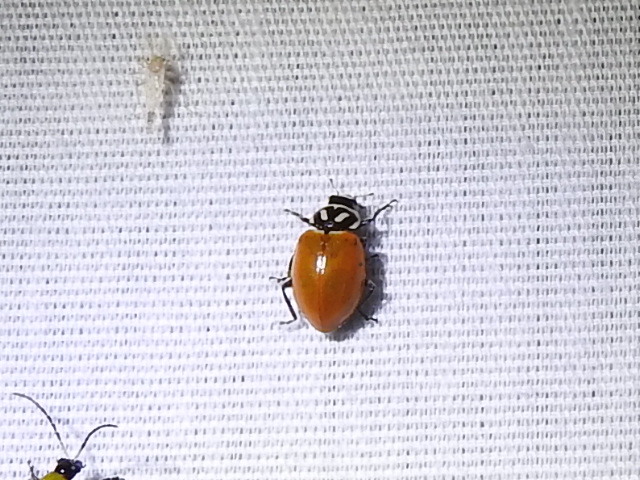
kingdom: Animalia
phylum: Arthropoda
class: Insecta
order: Coleoptera
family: Coccinellidae
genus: Hippodamia
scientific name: Hippodamia convergens
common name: Convergent lady beetle
